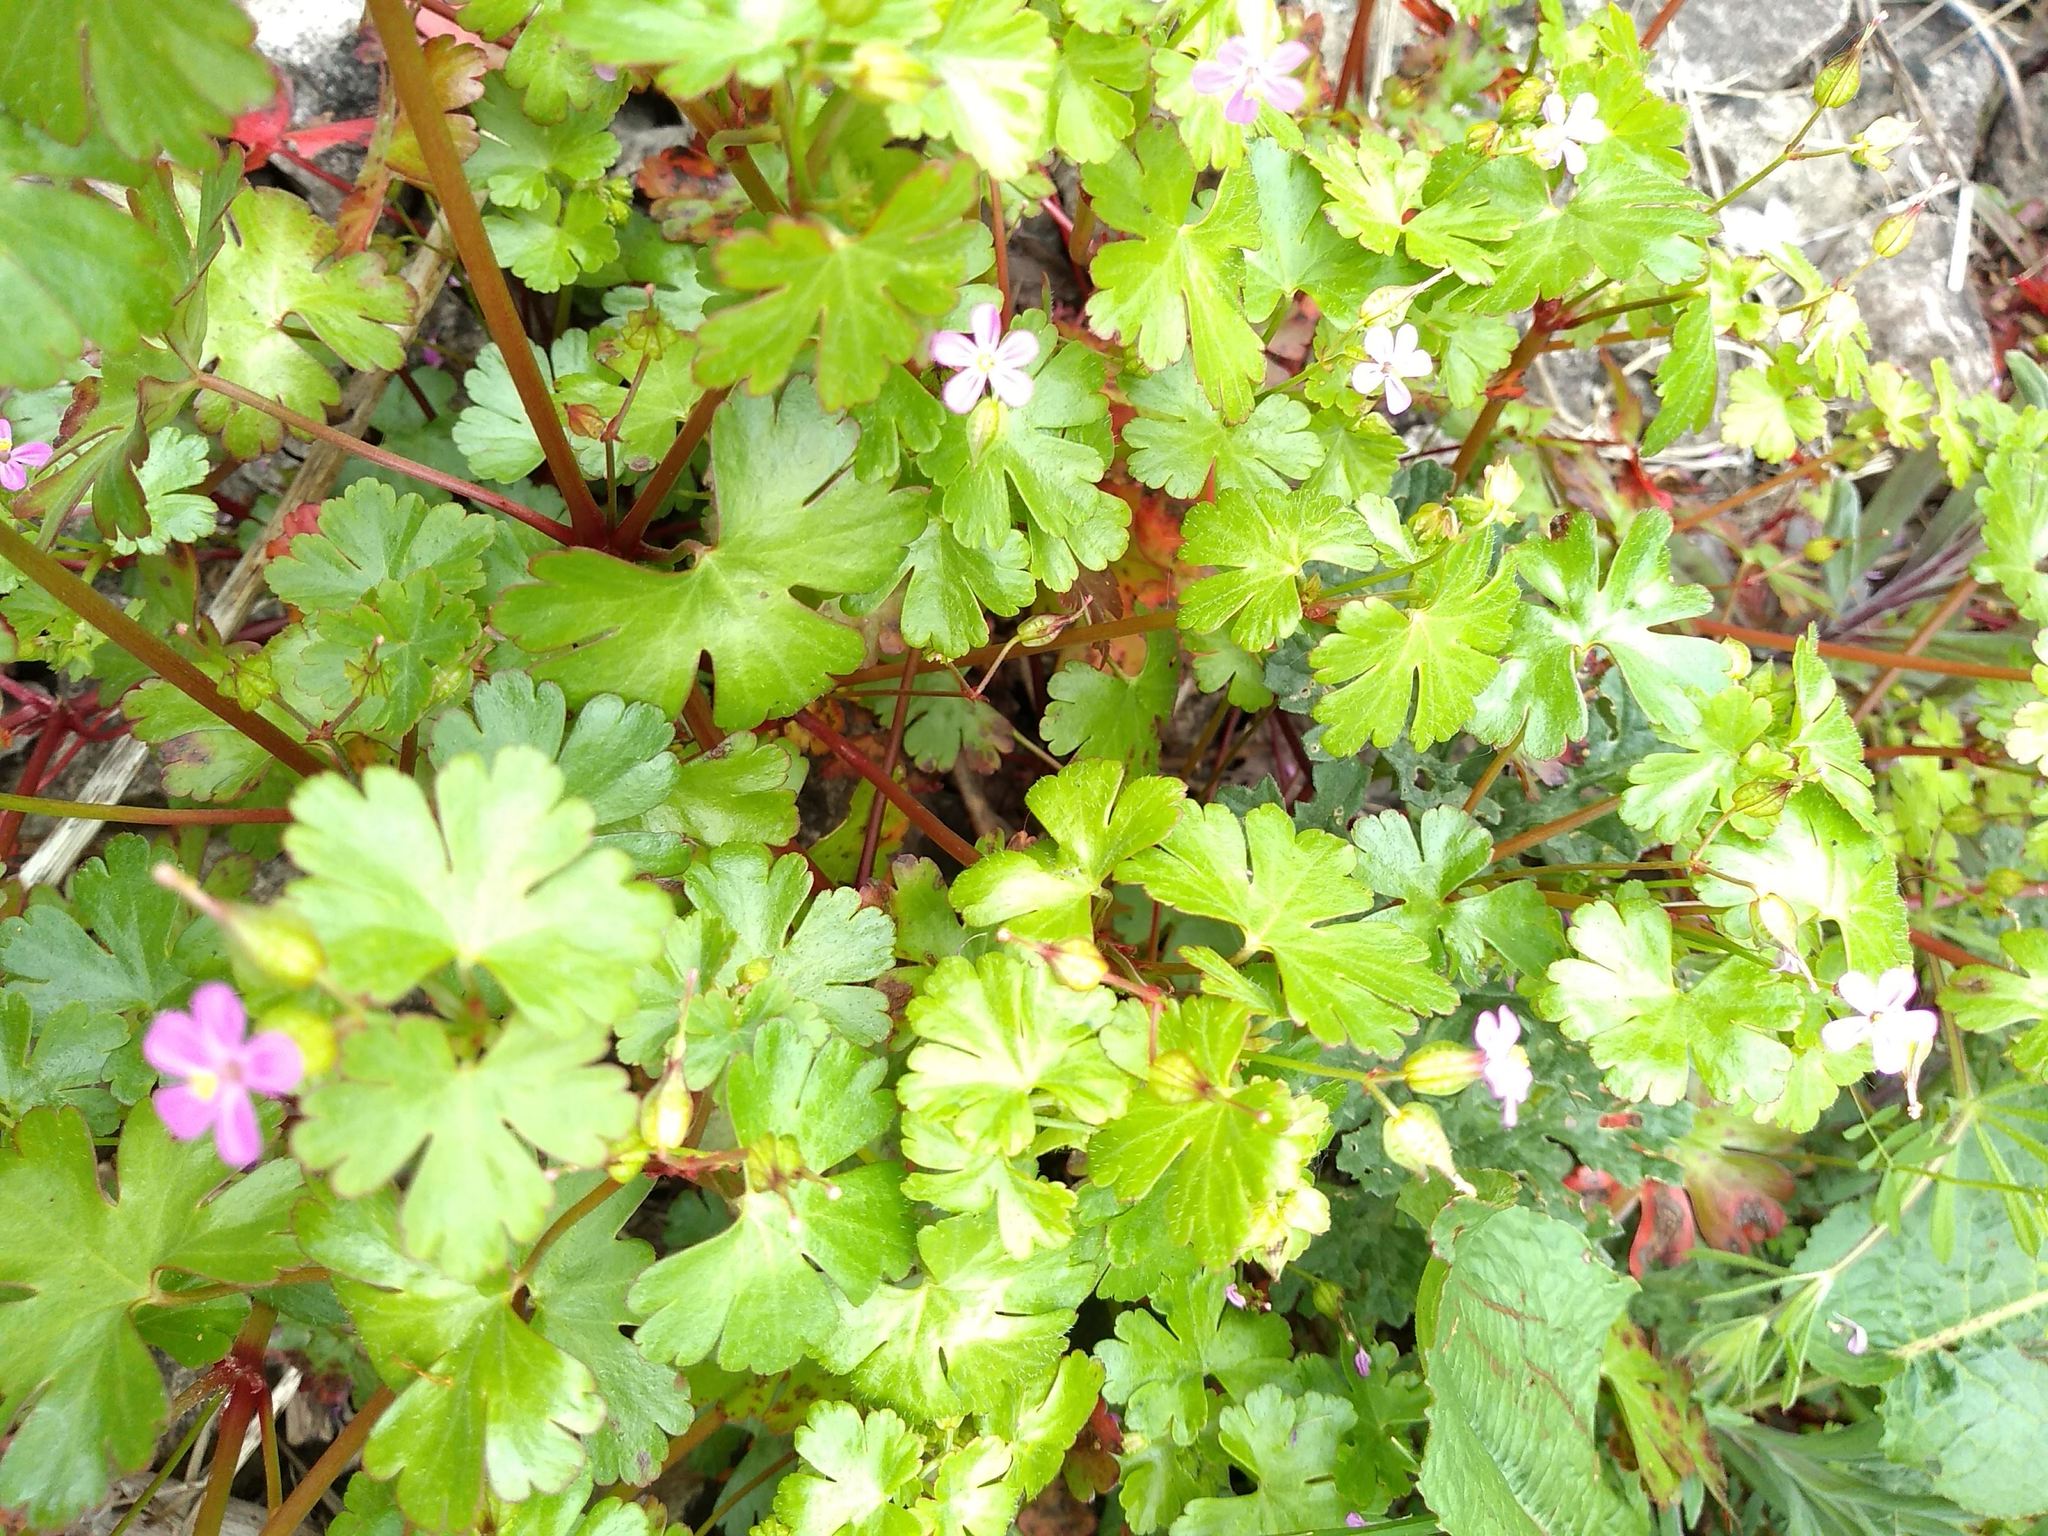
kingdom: Plantae
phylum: Tracheophyta
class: Magnoliopsida
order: Geraniales
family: Geraniaceae
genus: Geranium
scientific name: Geranium lucidum
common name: Shining crane's-bill
